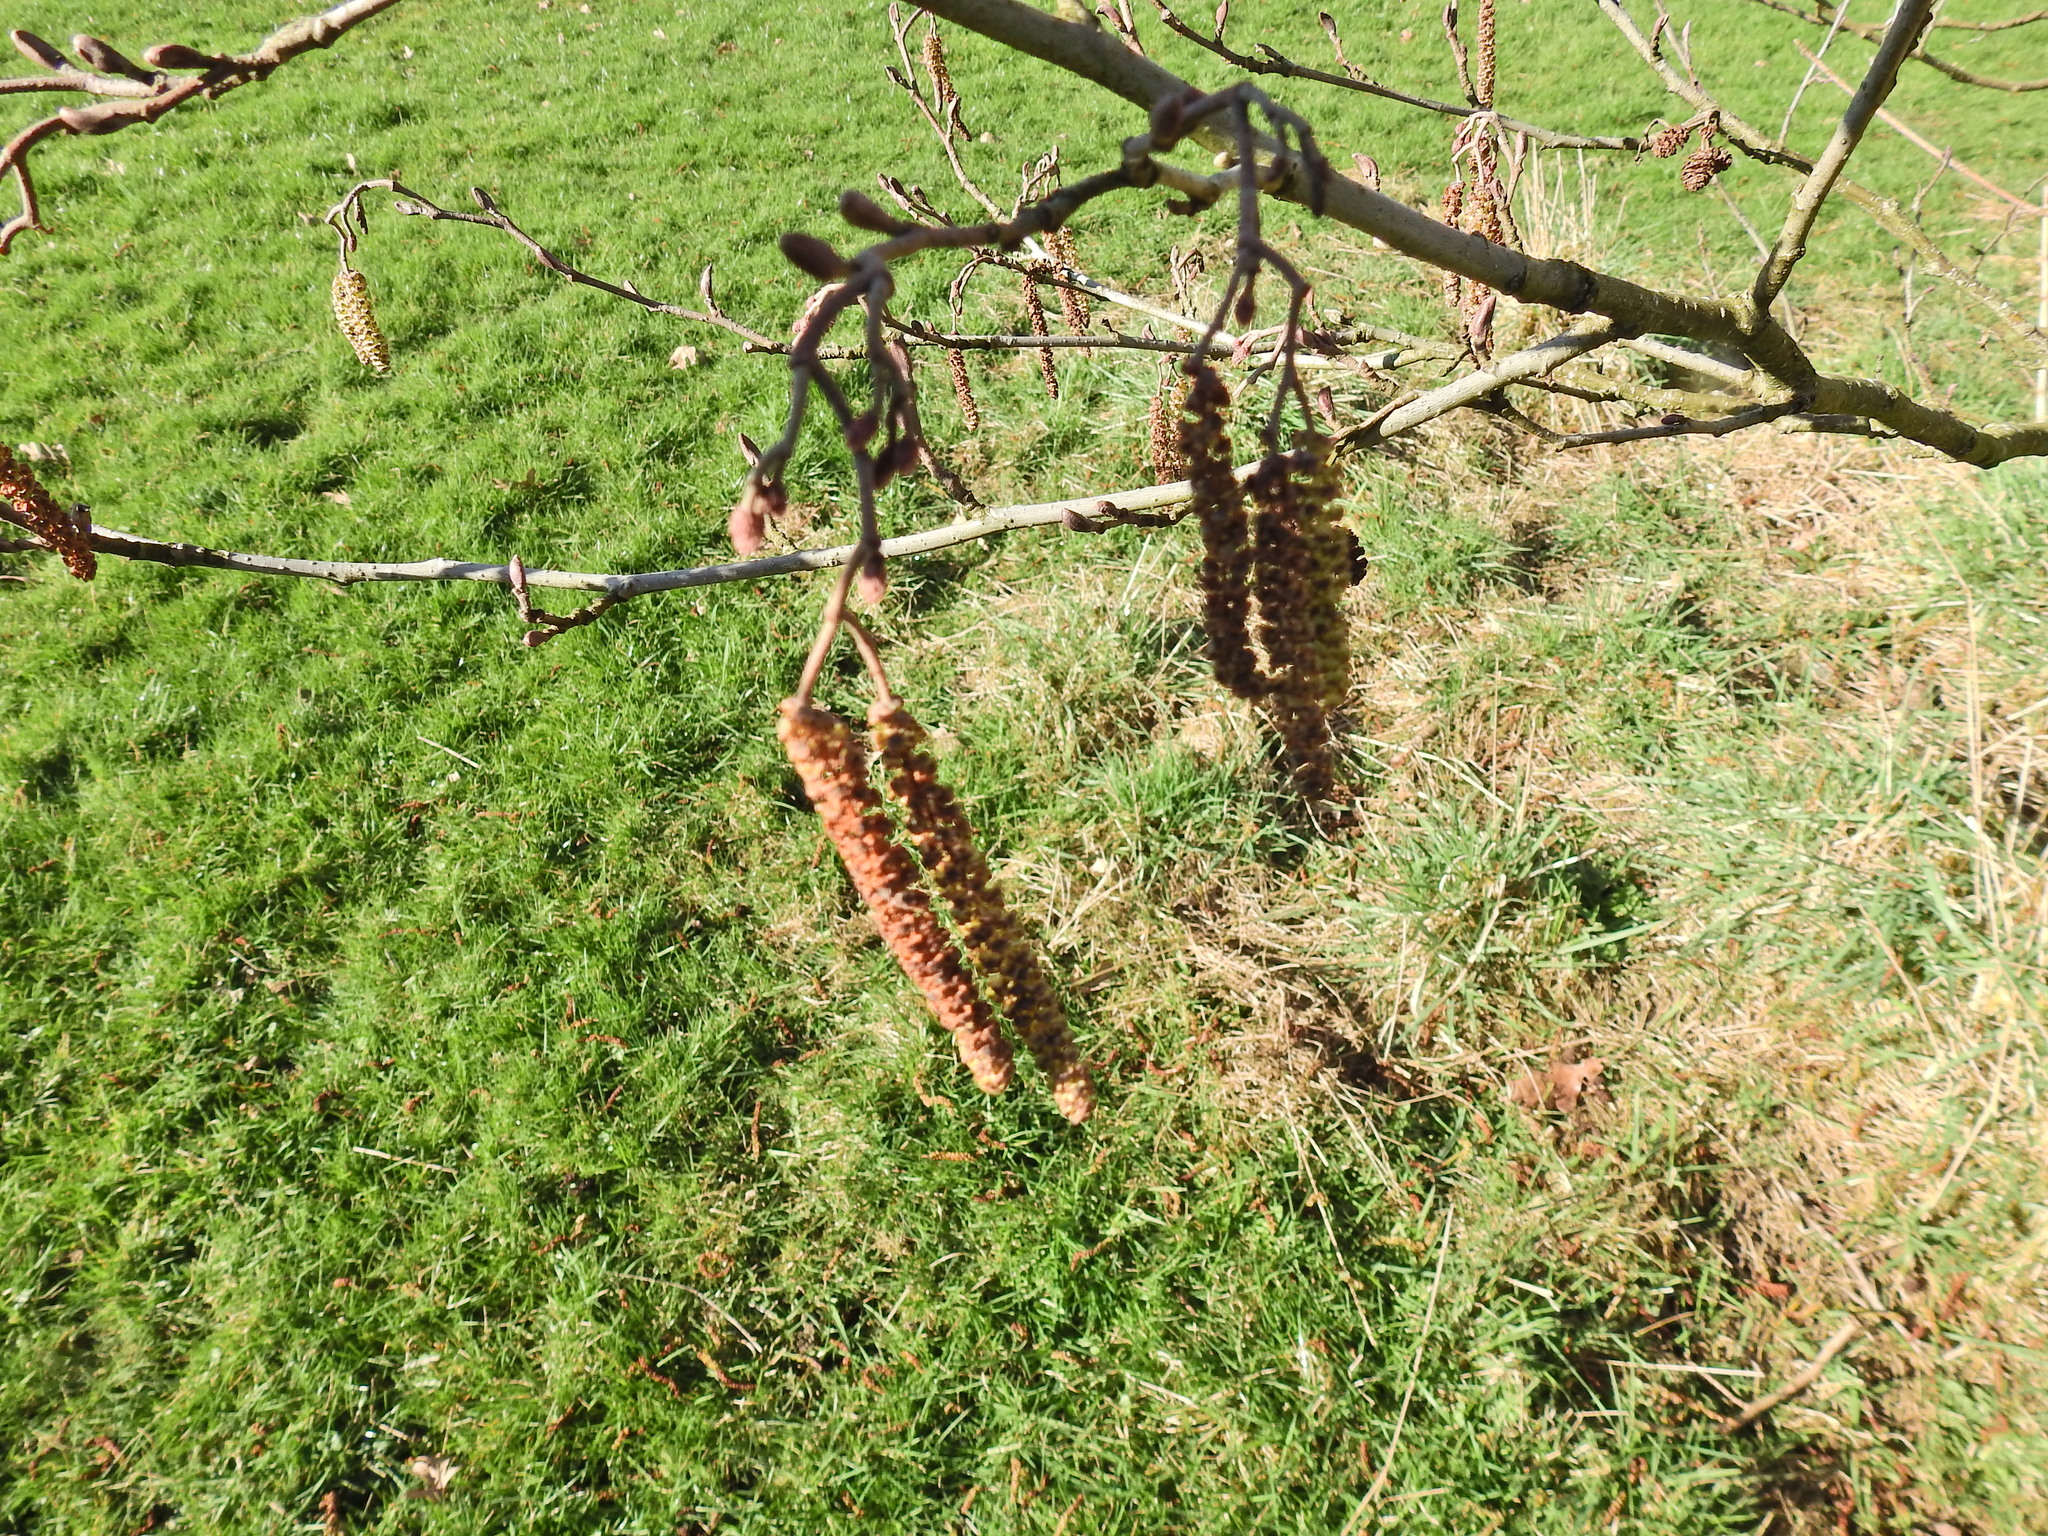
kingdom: Plantae
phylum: Tracheophyta
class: Magnoliopsida
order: Fagales
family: Betulaceae
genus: Alnus
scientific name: Alnus glutinosa
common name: Black alder
